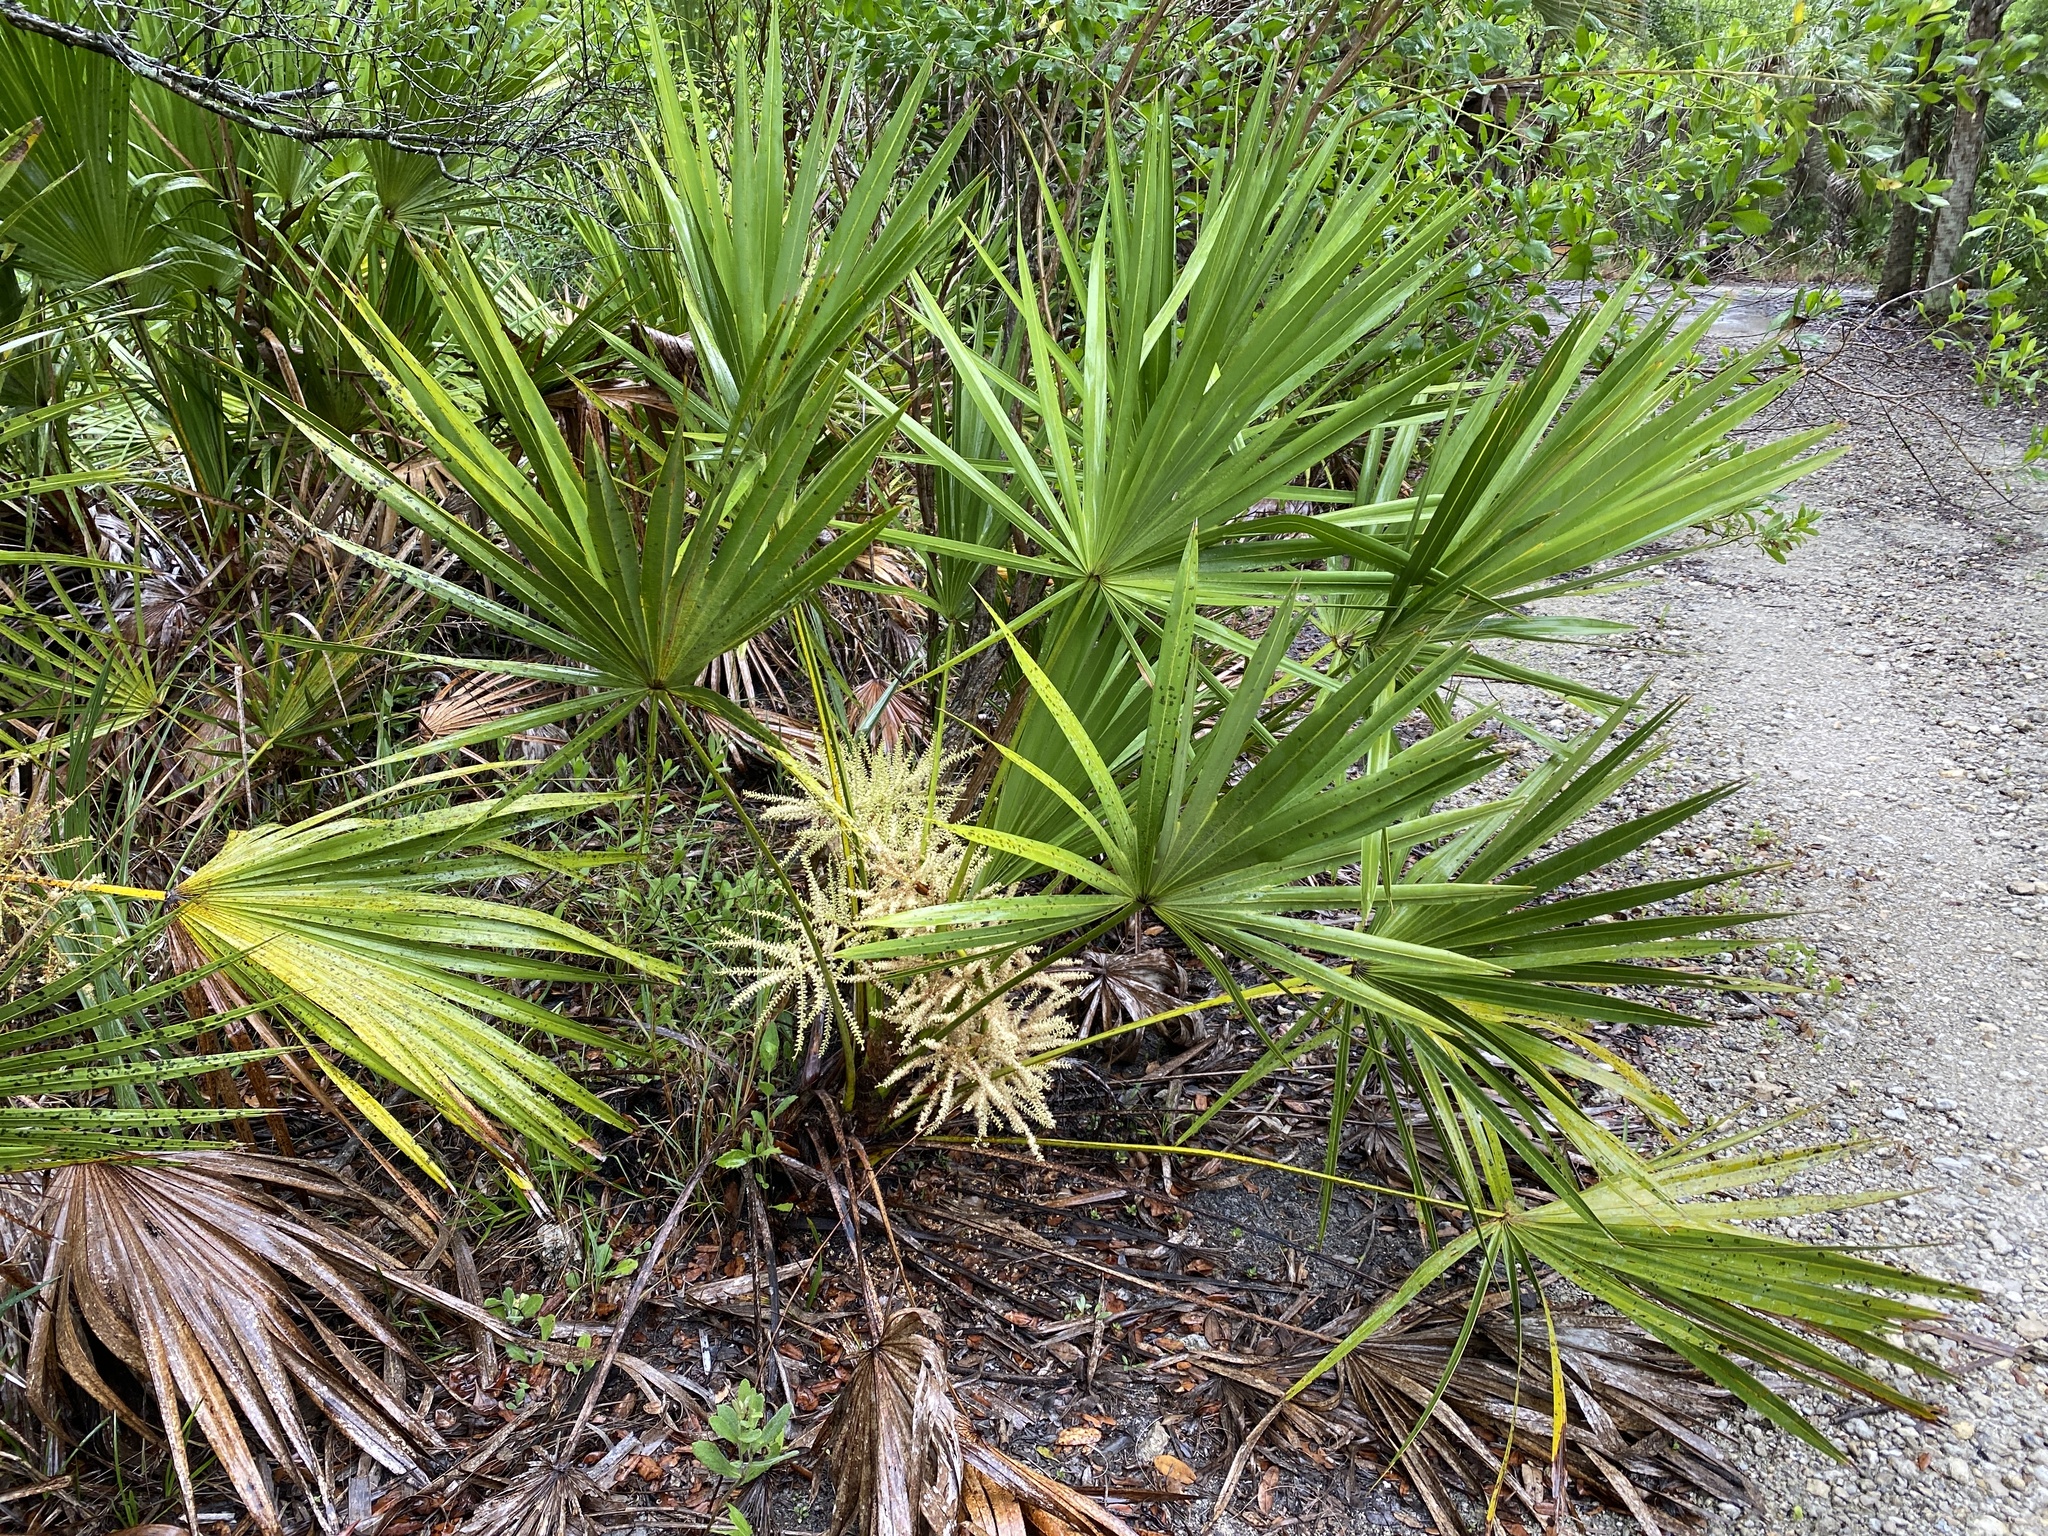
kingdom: Plantae
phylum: Tracheophyta
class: Liliopsida
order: Arecales
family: Arecaceae
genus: Serenoa
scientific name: Serenoa repens
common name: Saw-palmetto
